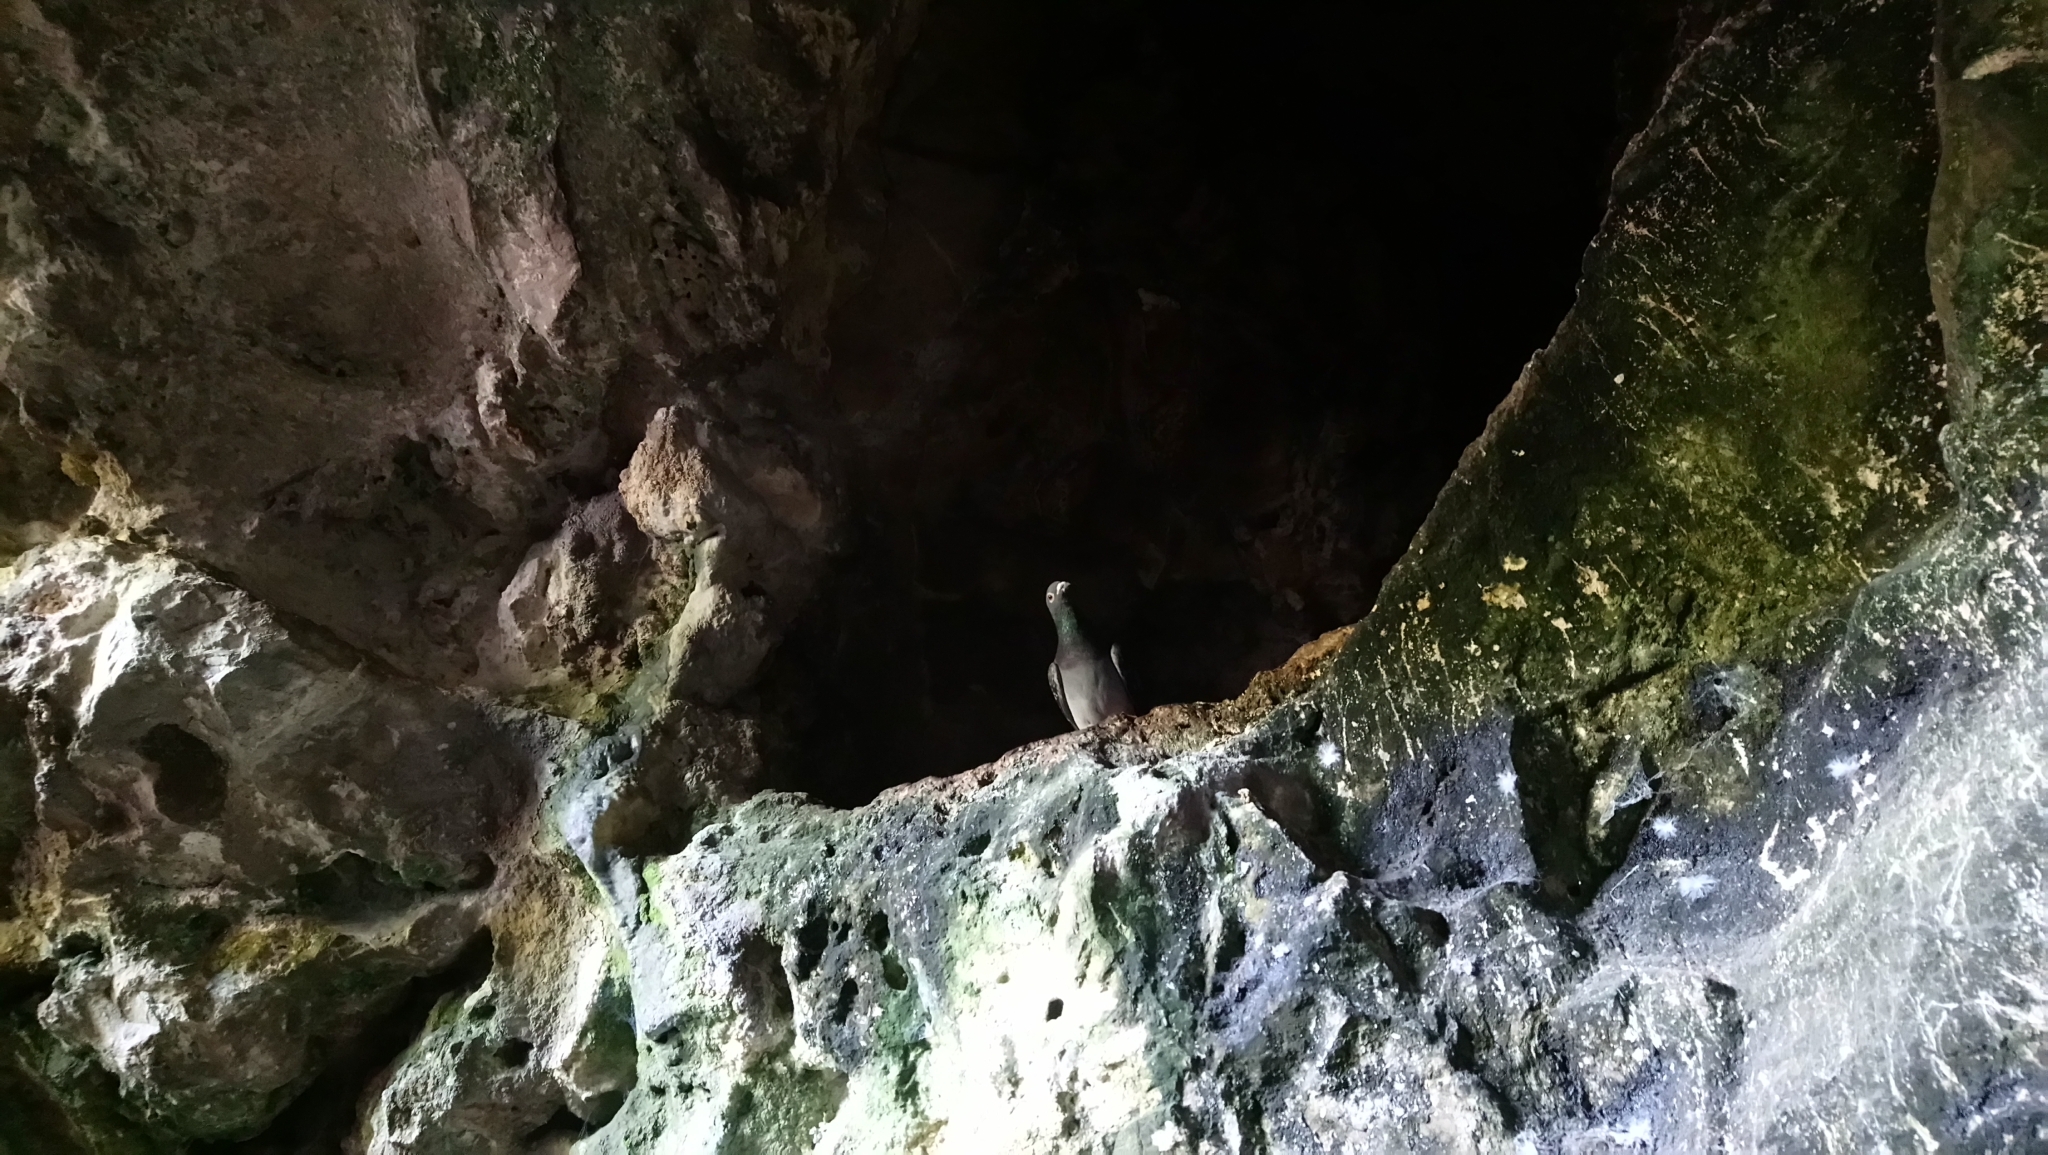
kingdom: Animalia
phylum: Chordata
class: Aves
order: Columbiformes
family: Columbidae
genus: Columba
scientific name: Columba livia
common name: Rock pigeon
